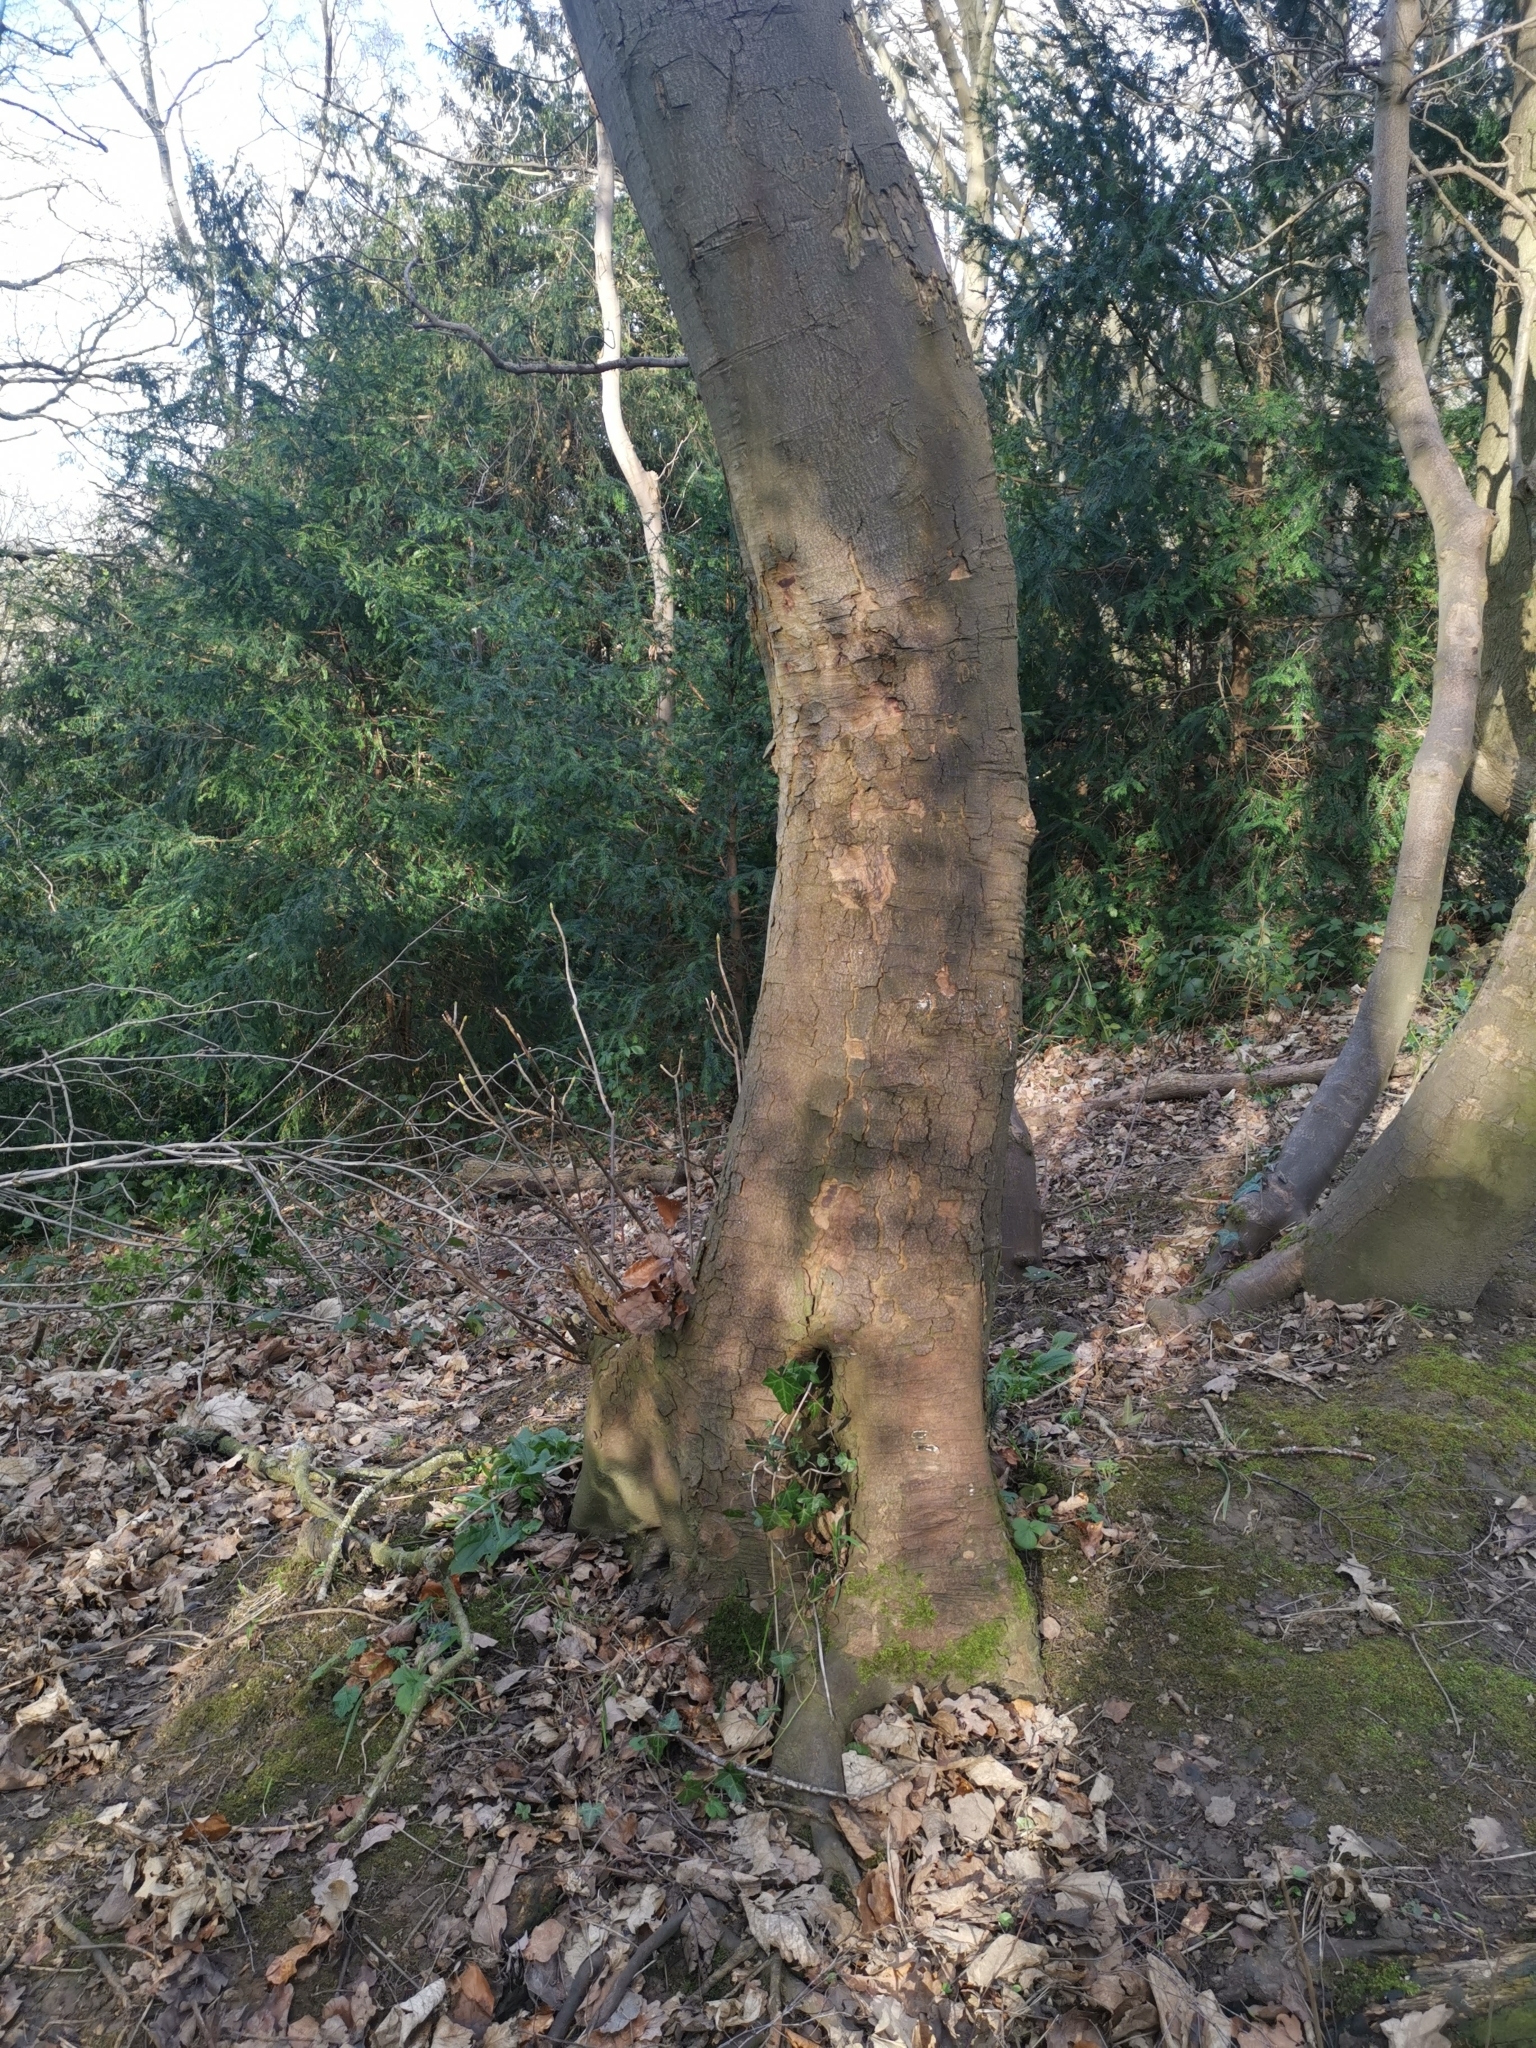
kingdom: Plantae
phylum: Tracheophyta
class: Magnoliopsida
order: Sapindales
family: Sapindaceae
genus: Acer
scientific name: Acer pseudoplatanus
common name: Sycamore
